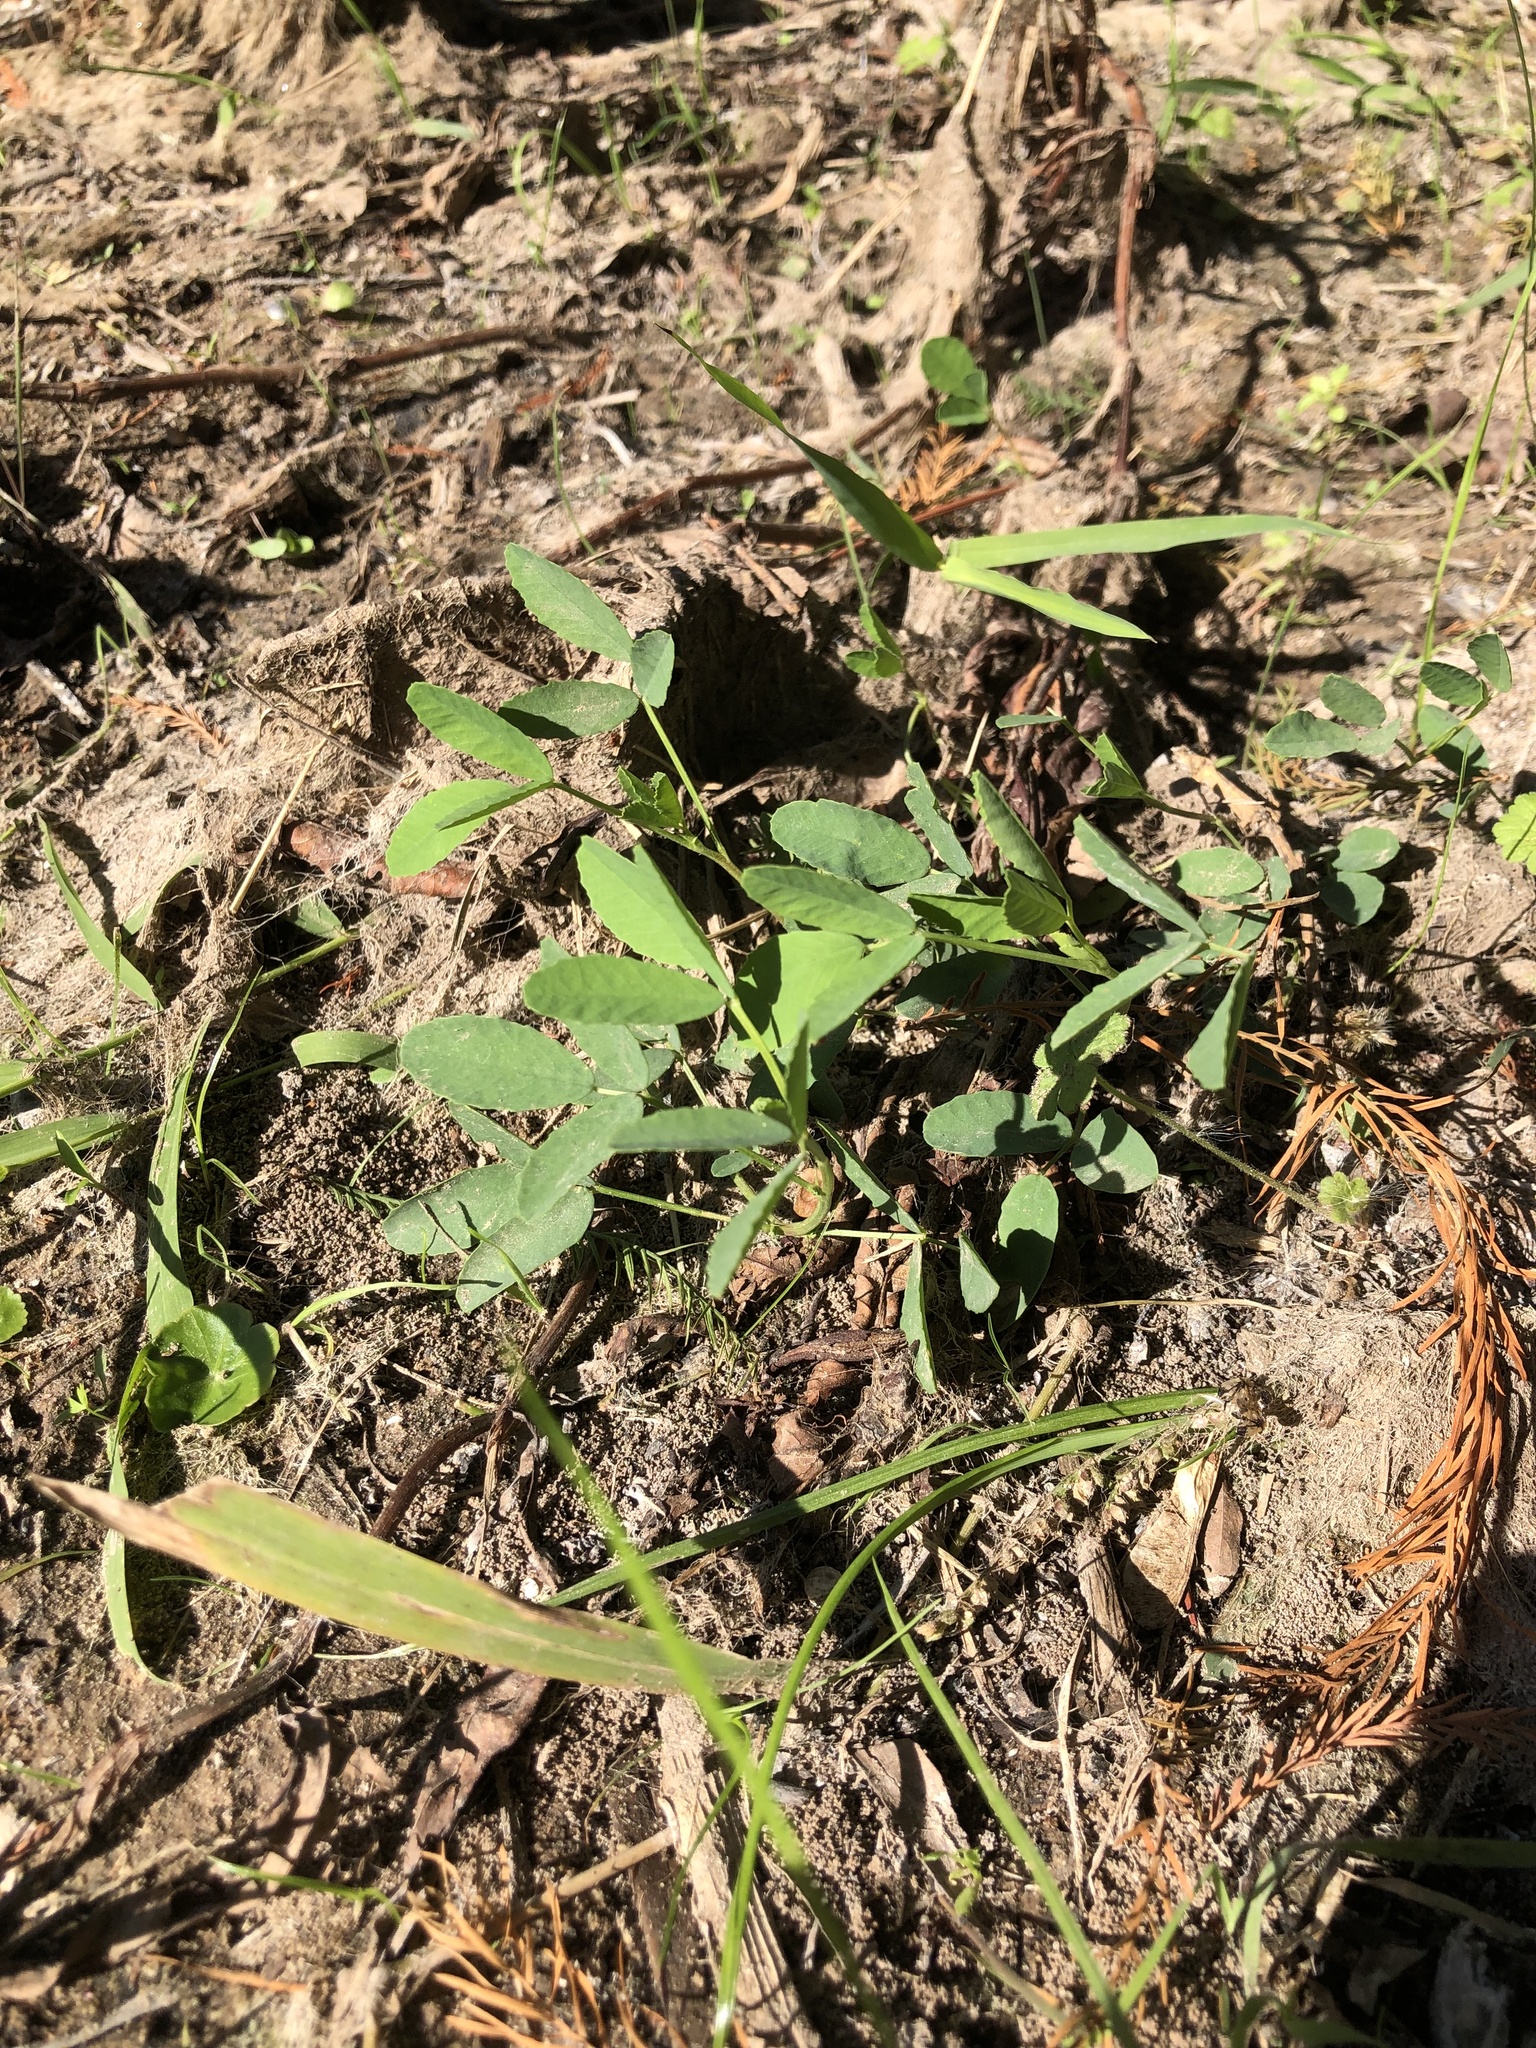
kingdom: Plantae
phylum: Tracheophyta
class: Magnoliopsida
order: Fabales
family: Fabaceae
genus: Melilotus
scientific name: Melilotus albus
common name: White melilot
